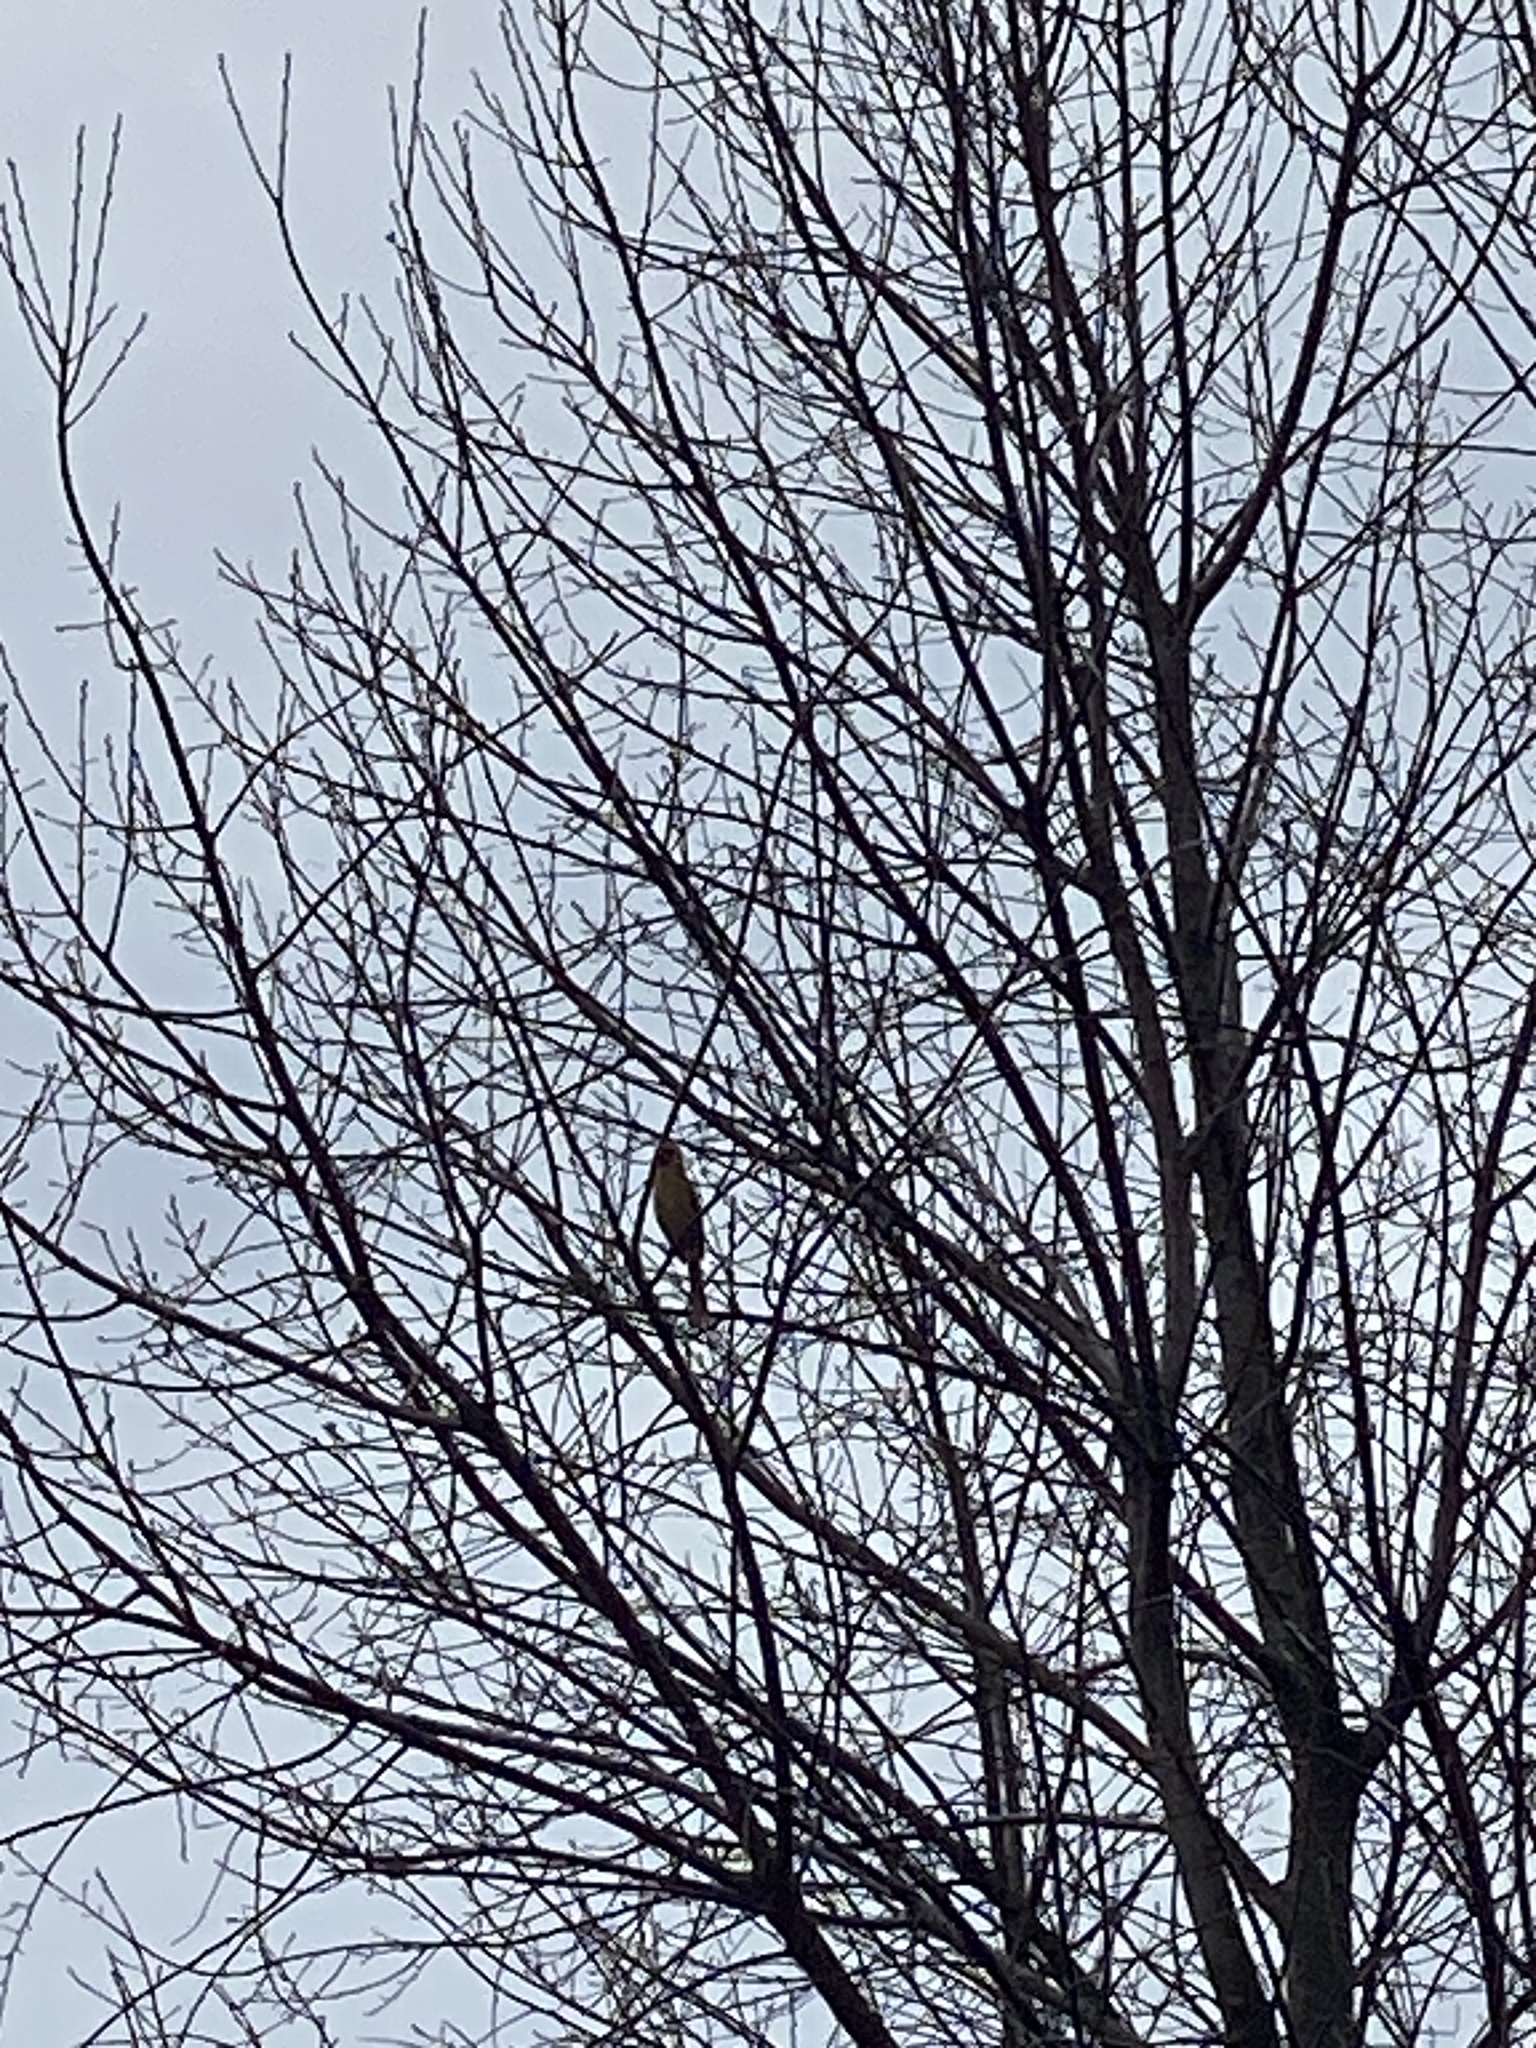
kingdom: Animalia
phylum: Chordata
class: Aves
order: Passeriformes
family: Cardinalidae
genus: Cardinalis
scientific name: Cardinalis cardinalis
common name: Northern cardinal
